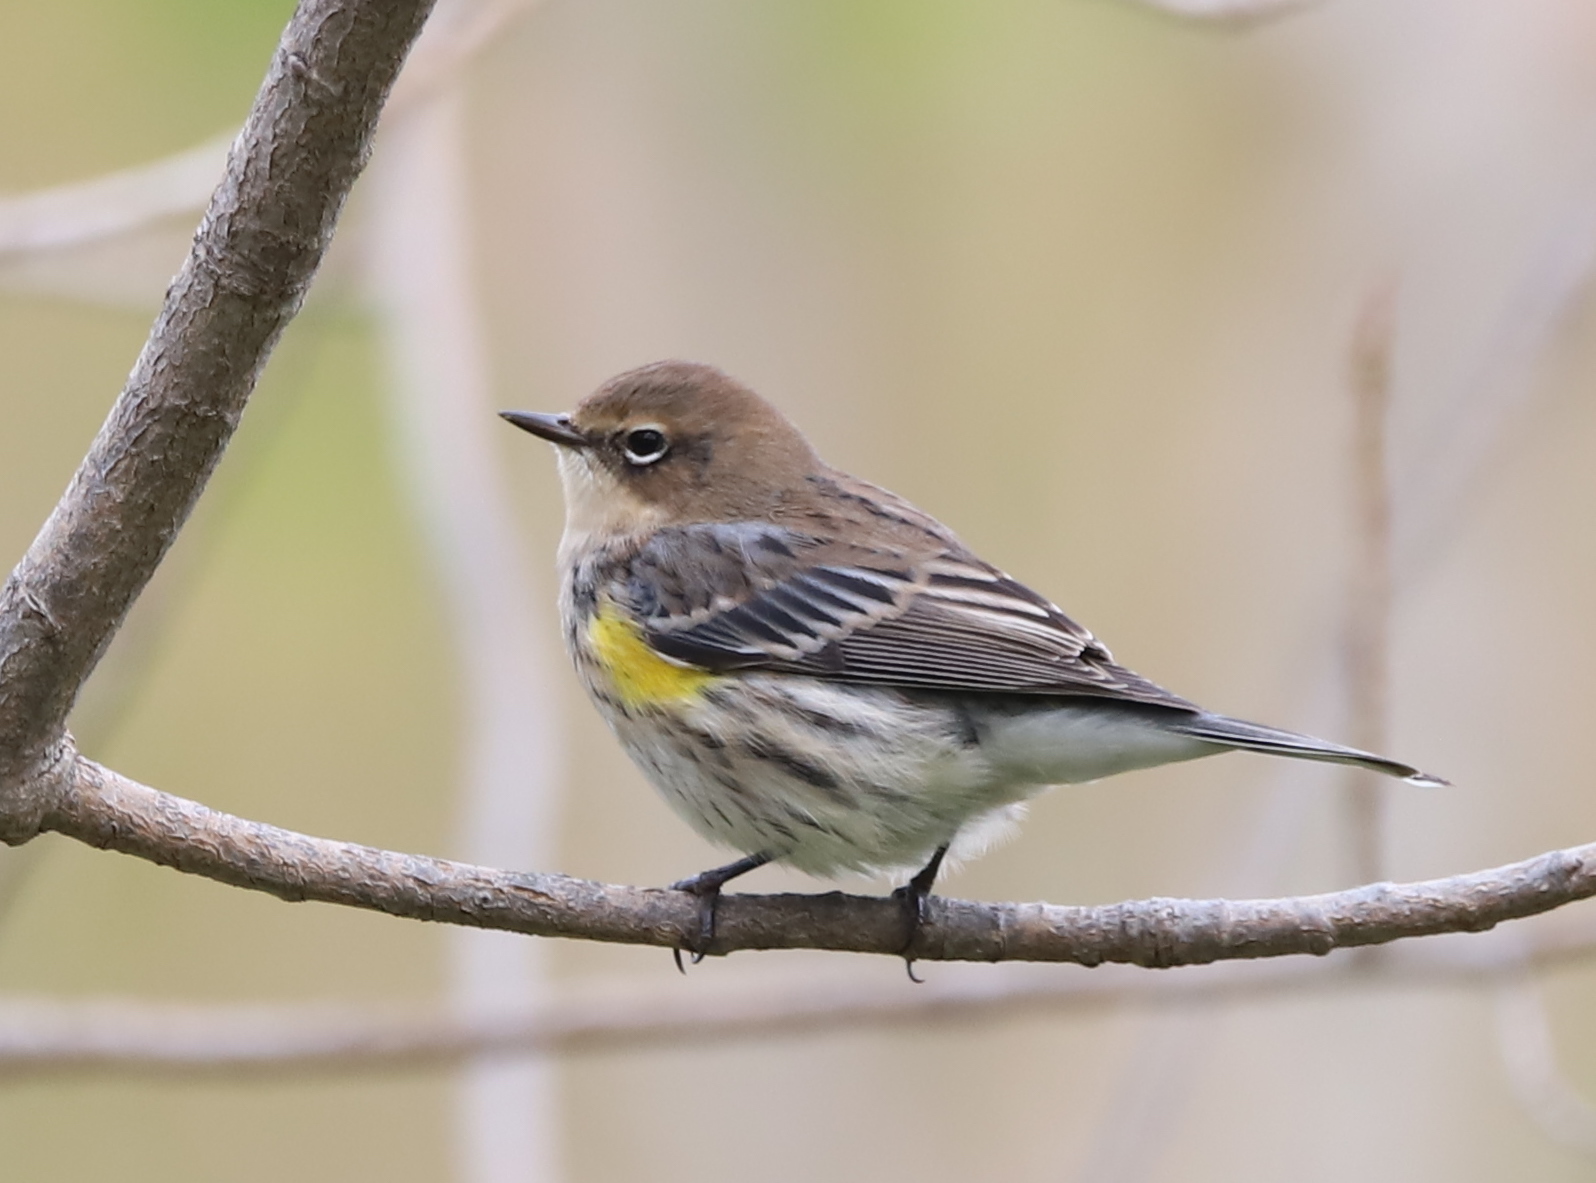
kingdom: Animalia
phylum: Chordata
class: Aves
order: Passeriformes
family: Parulidae
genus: Setophaga
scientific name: Setophaga coronata
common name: Myrtle warbler
